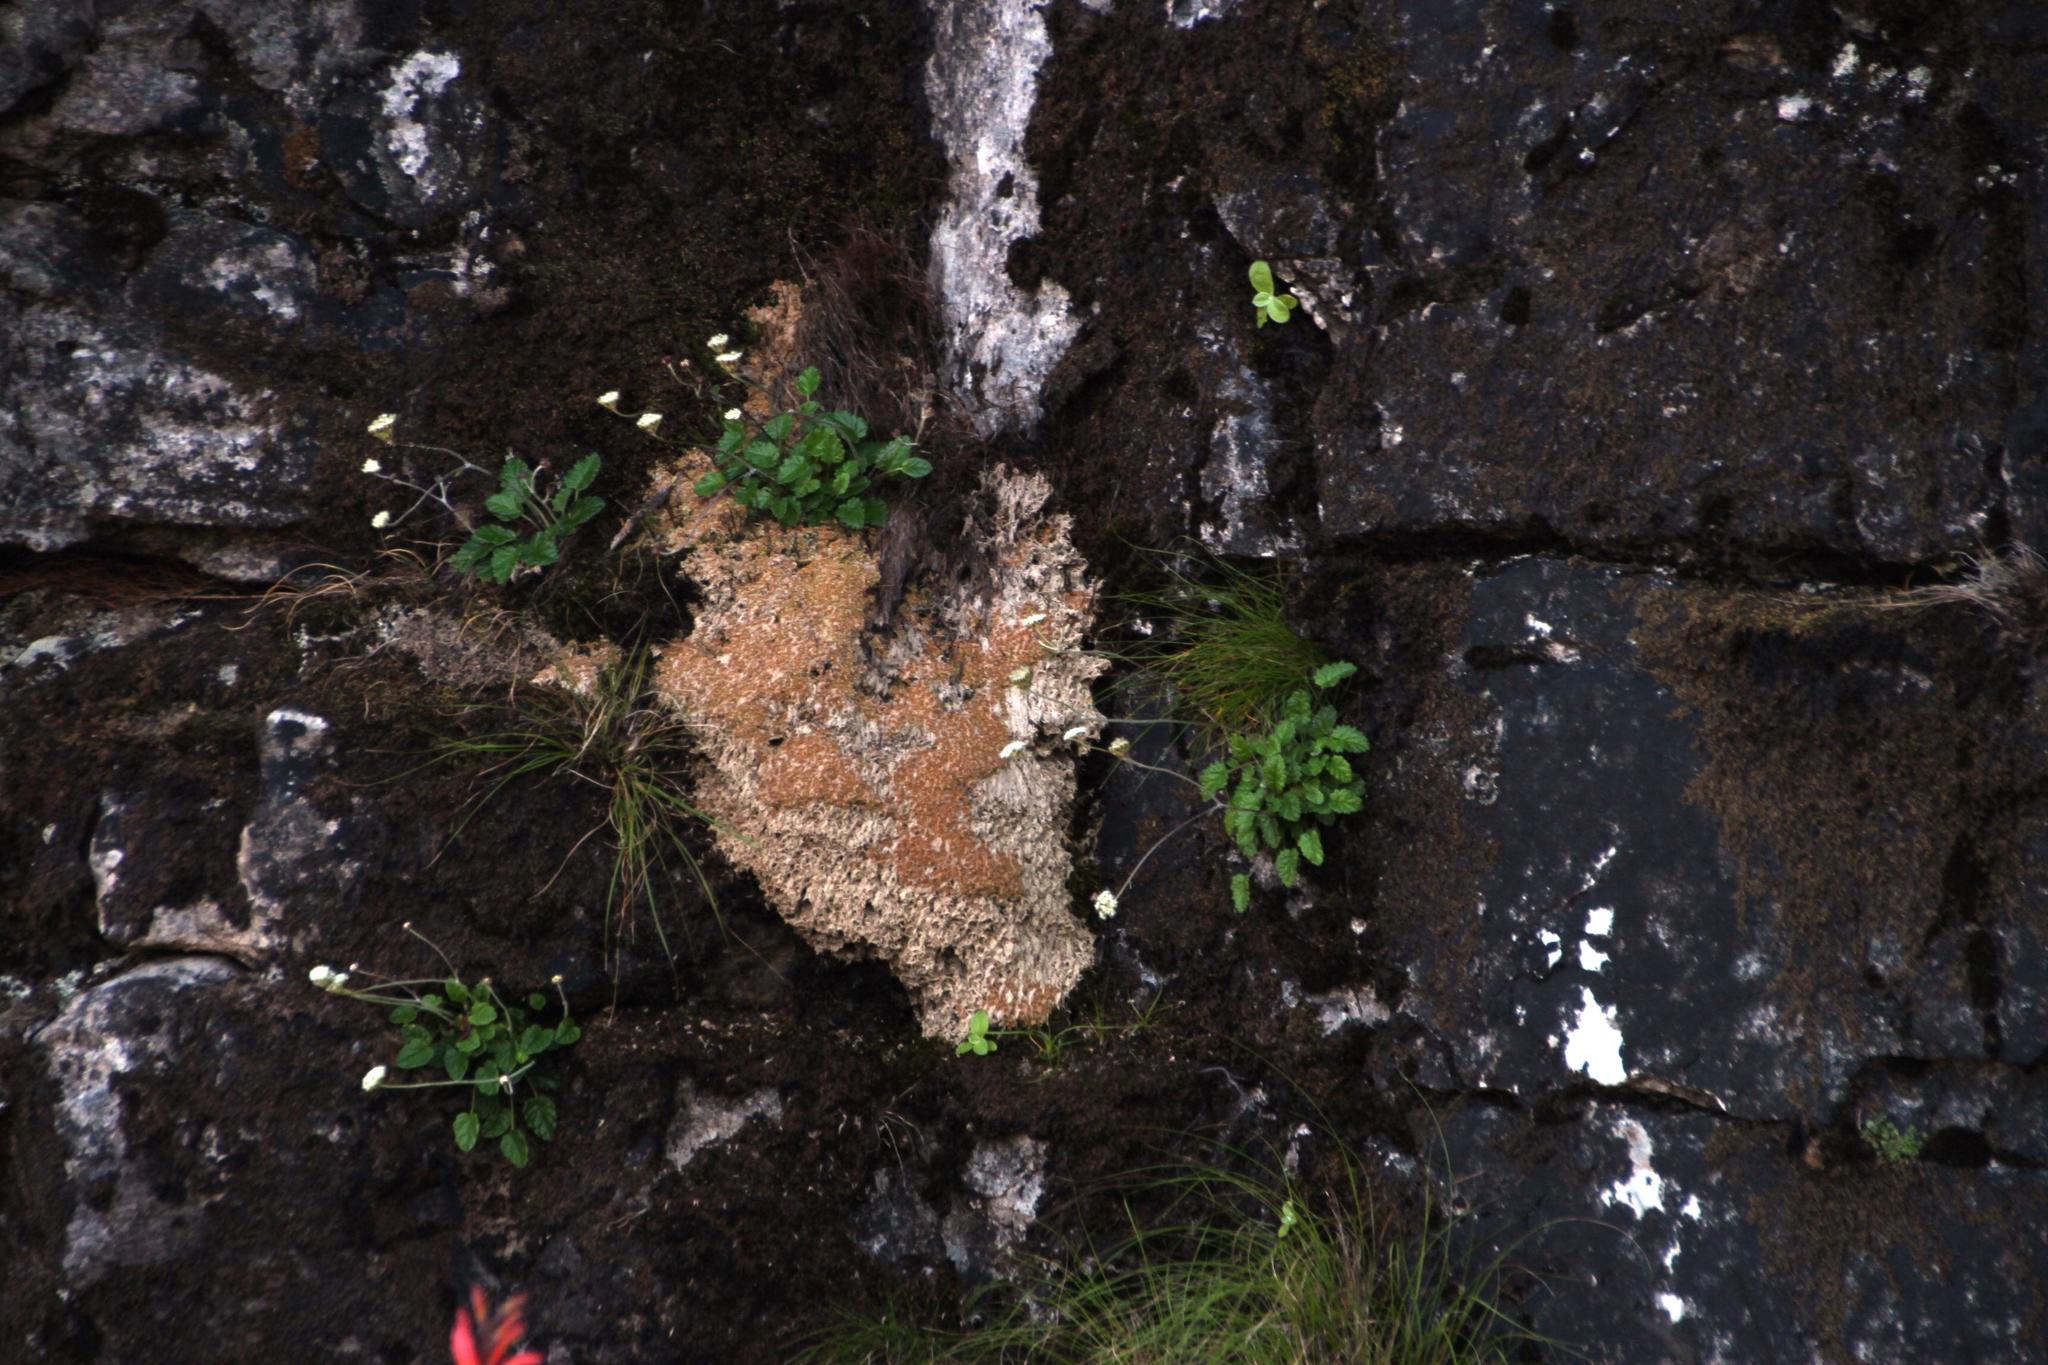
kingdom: Plantae
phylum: Tracheophyta
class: Magnoliopsida
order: Apiales
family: Apiaceae
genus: Hermas
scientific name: Hermas capitata
